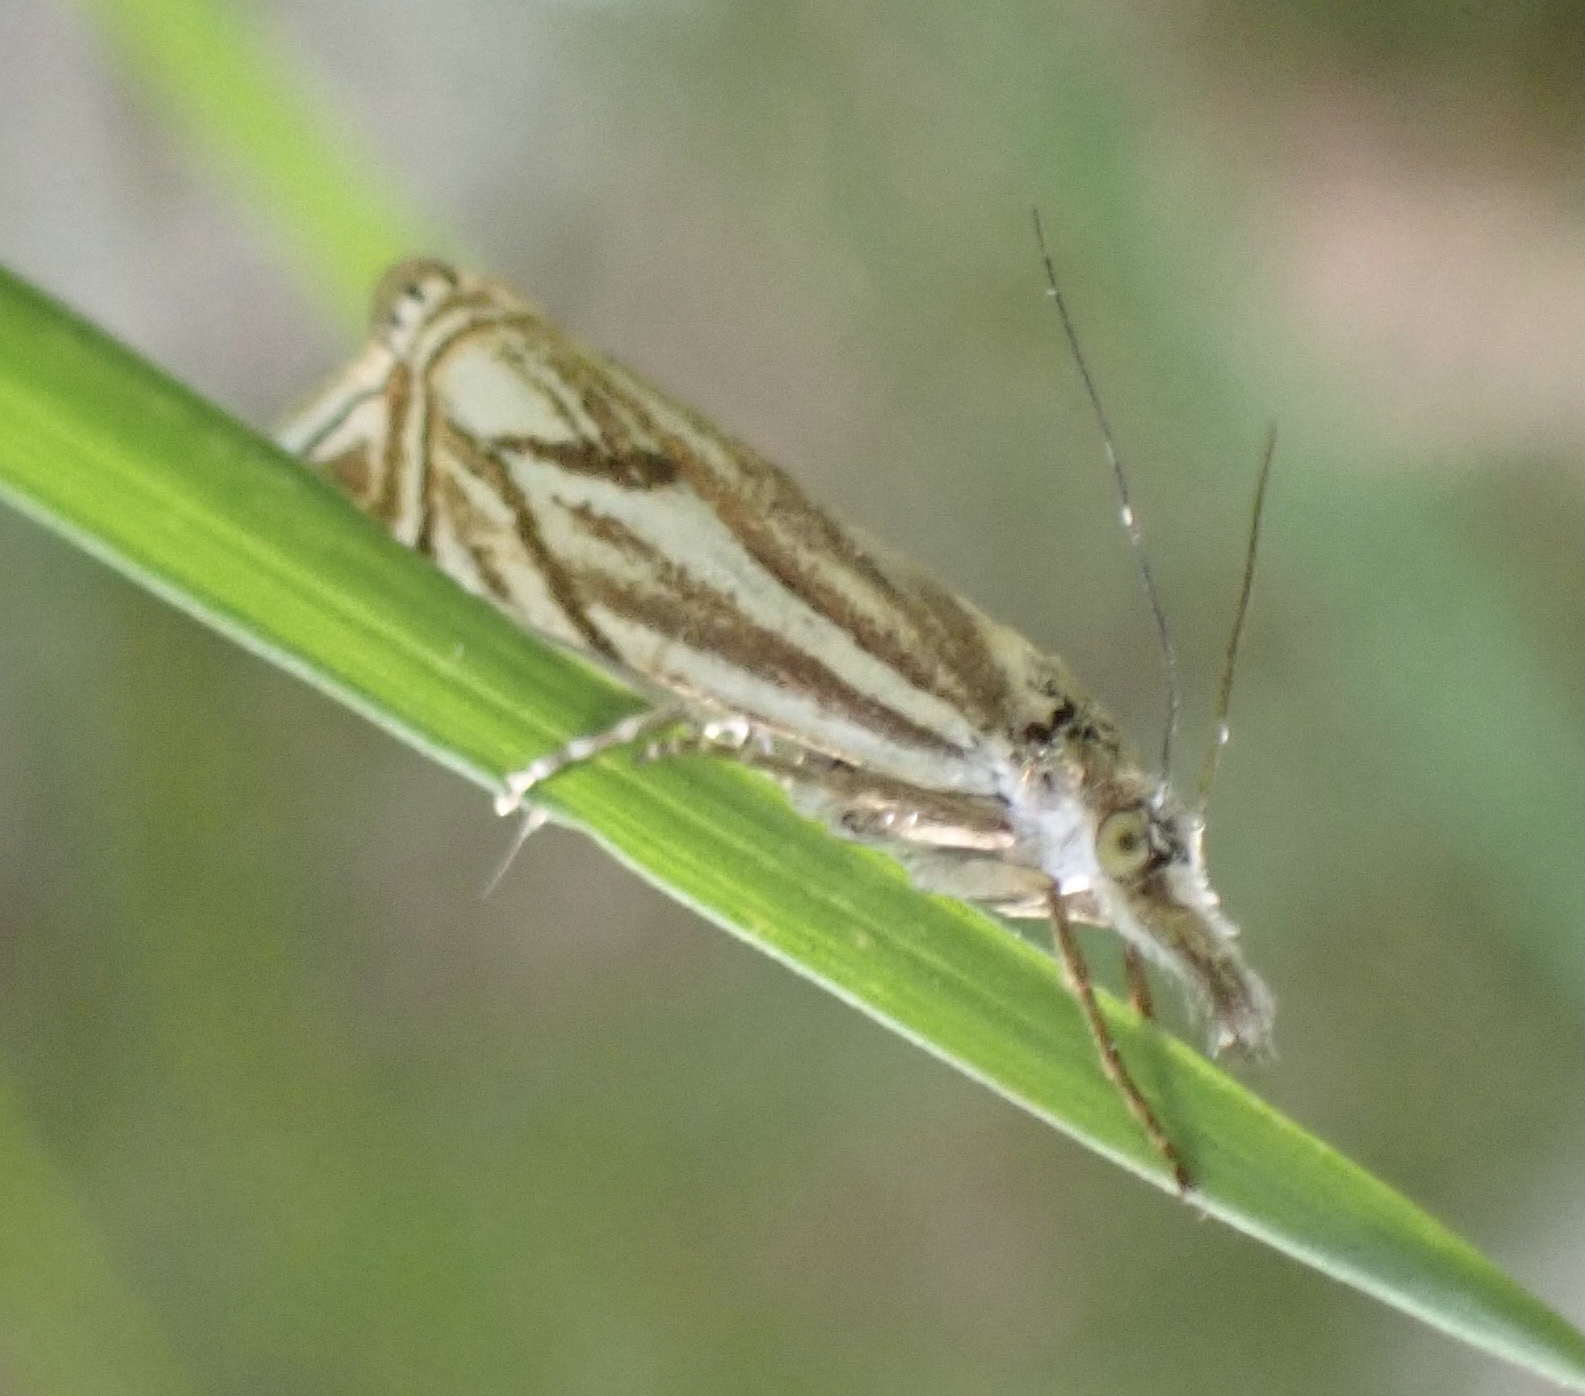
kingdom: Animalia
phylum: Arthropoda
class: Insecta
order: Lepidoptera
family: Crambidae
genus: Crambus
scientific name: Crambus nemorella
